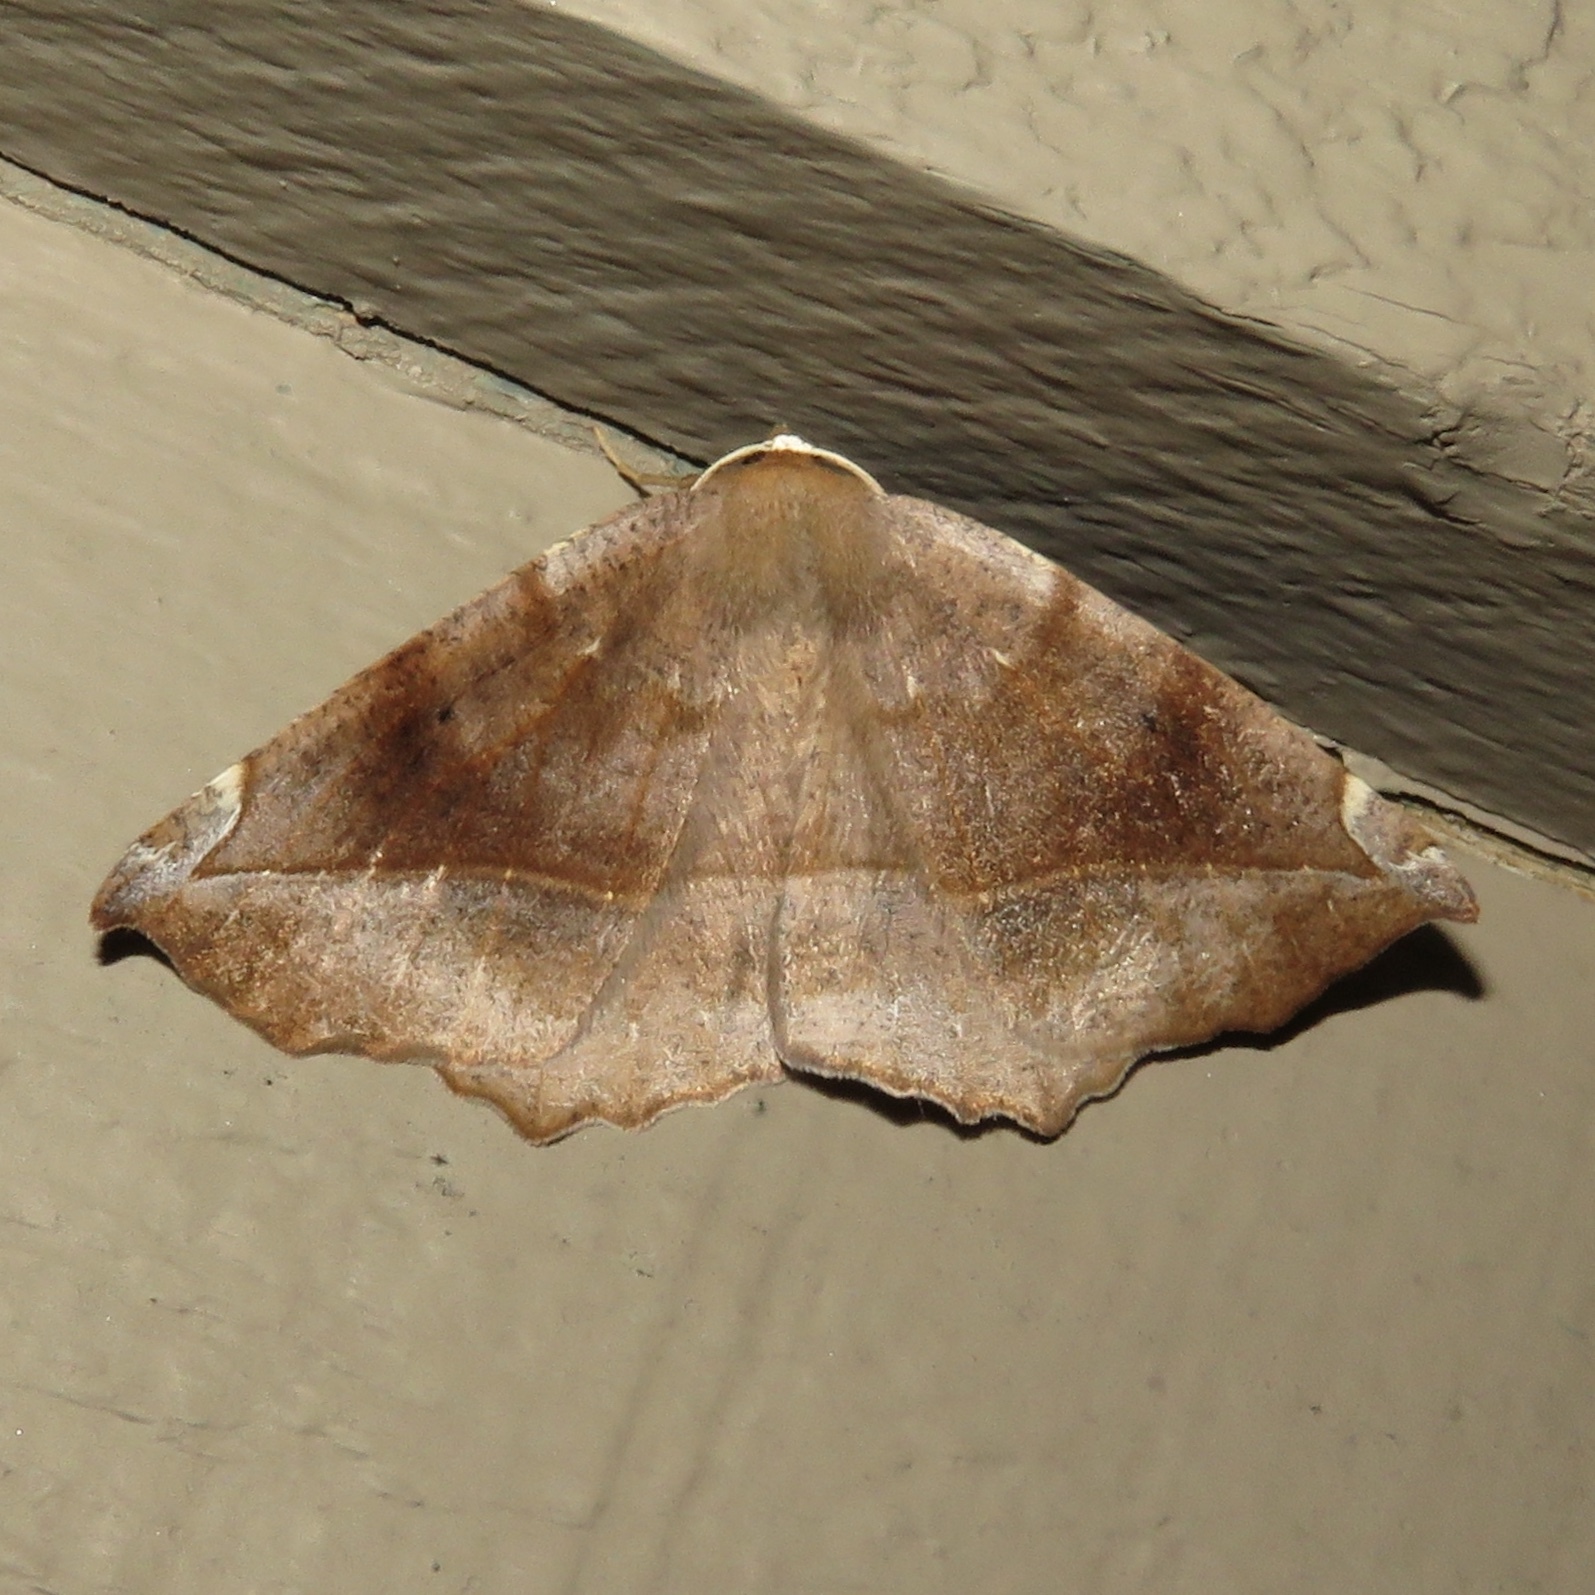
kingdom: Animalia
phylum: Arthropoda
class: Insecta
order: Lepidoptera
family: Geometridae
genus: Eutrapela
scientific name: Eutrapela clemataria
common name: Curved-toothed geometer
